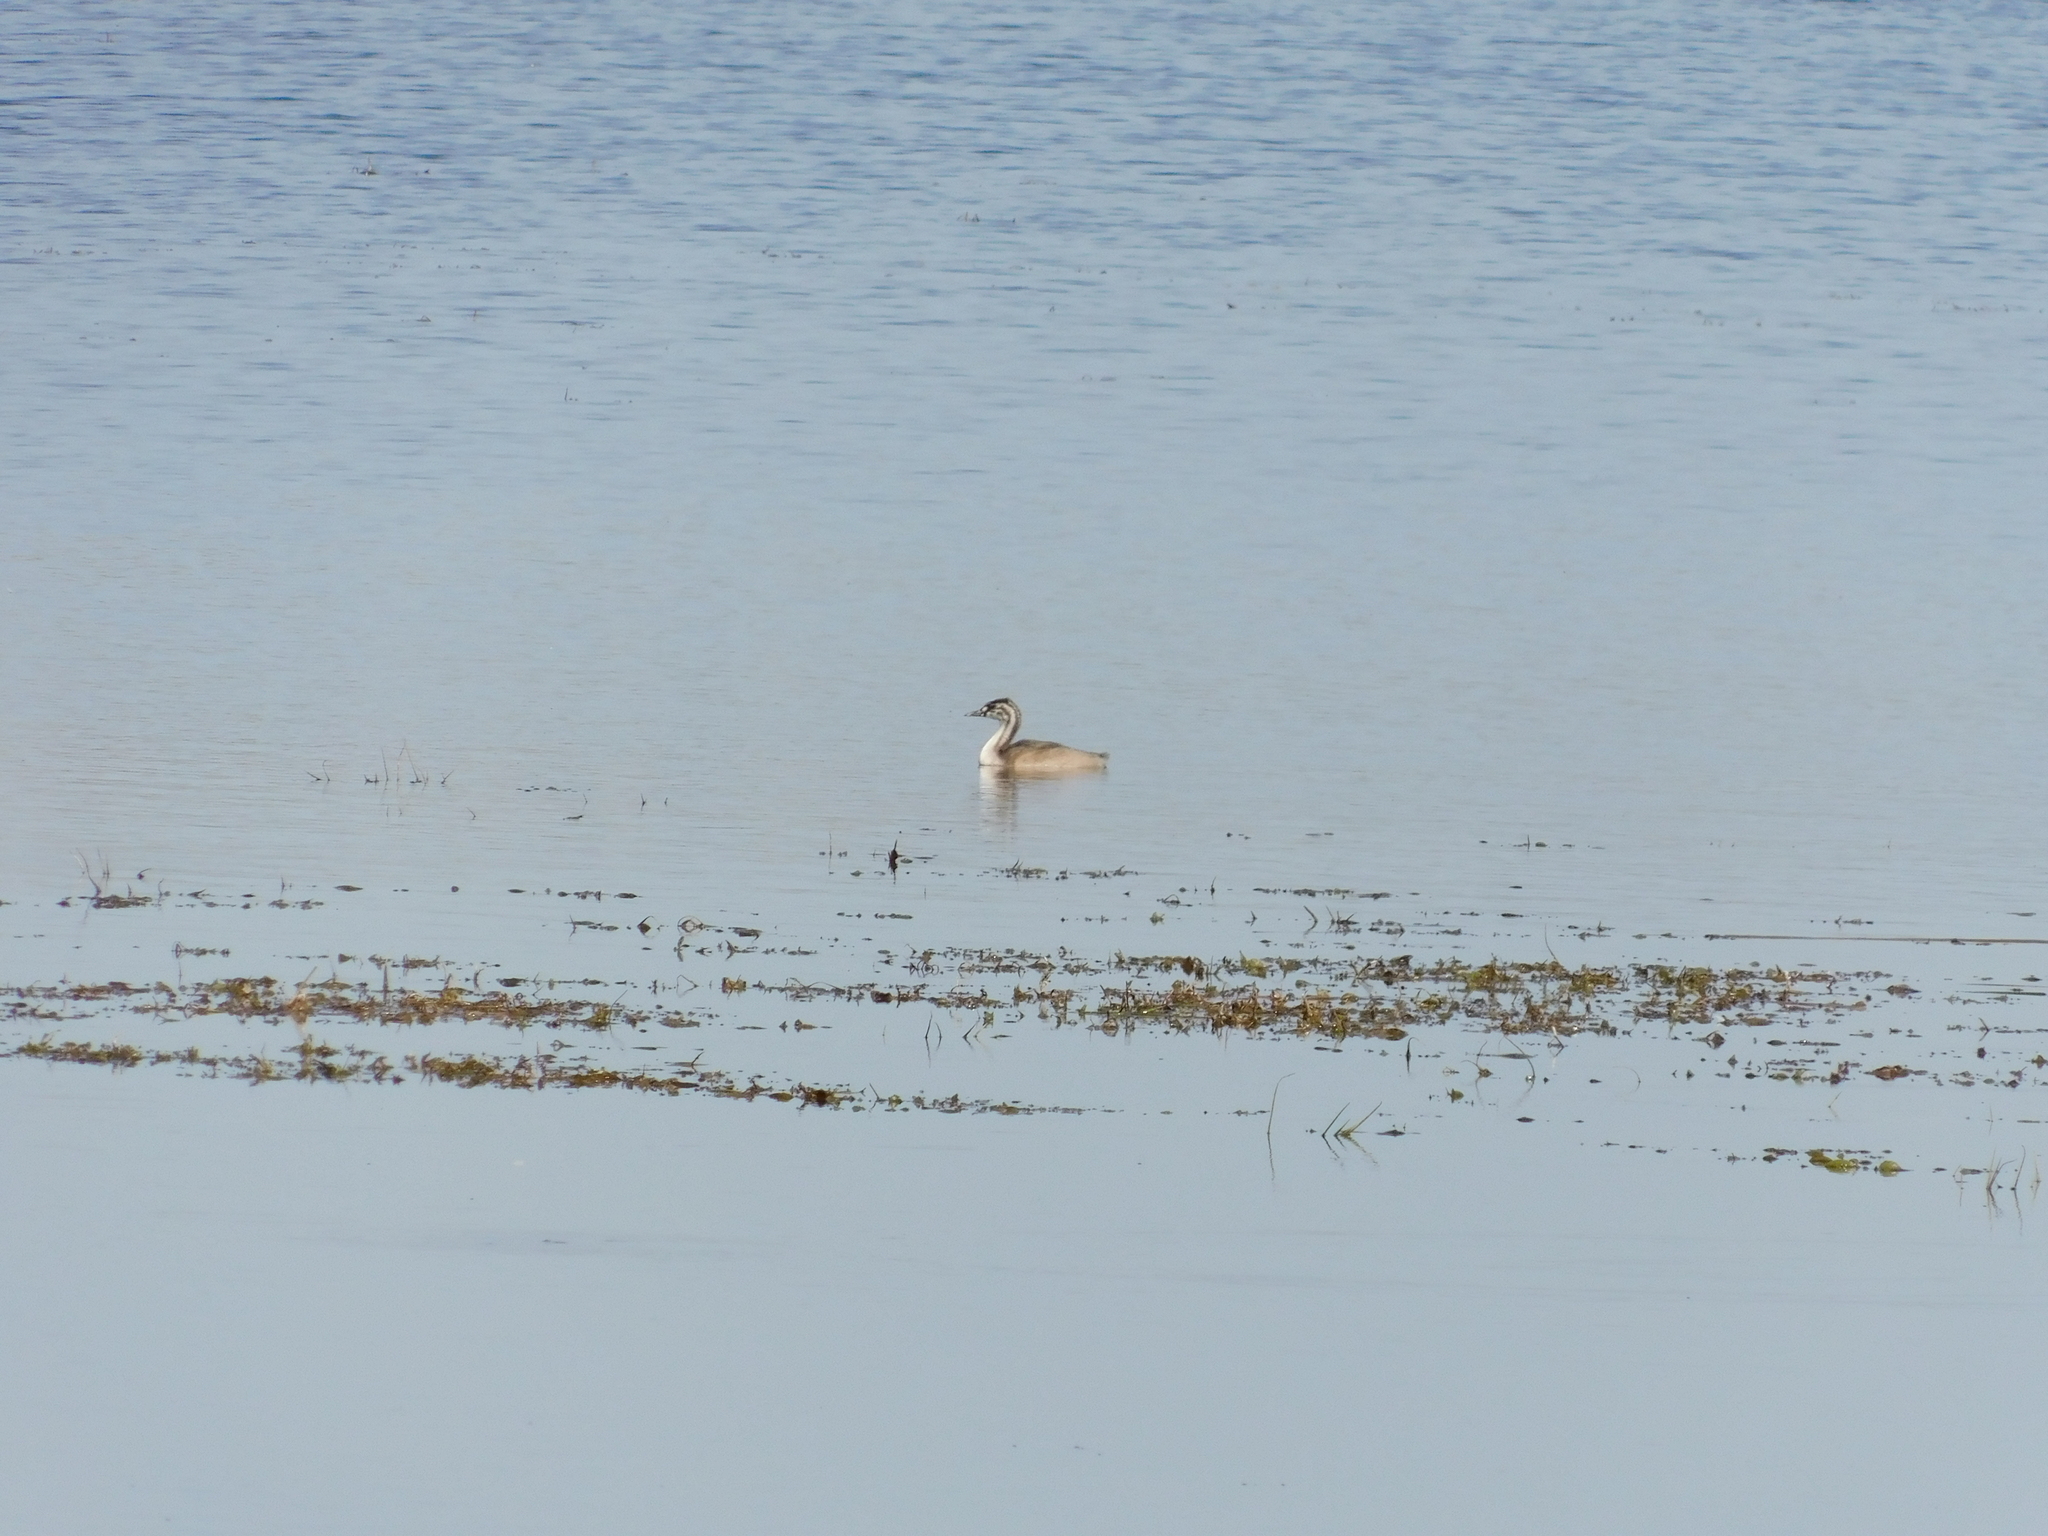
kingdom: Animalia
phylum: Chordata
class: Aves
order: Podicipediformes
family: Podicipedidae
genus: Podiceps
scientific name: Podiceps cristatus
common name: Great crested grebe
